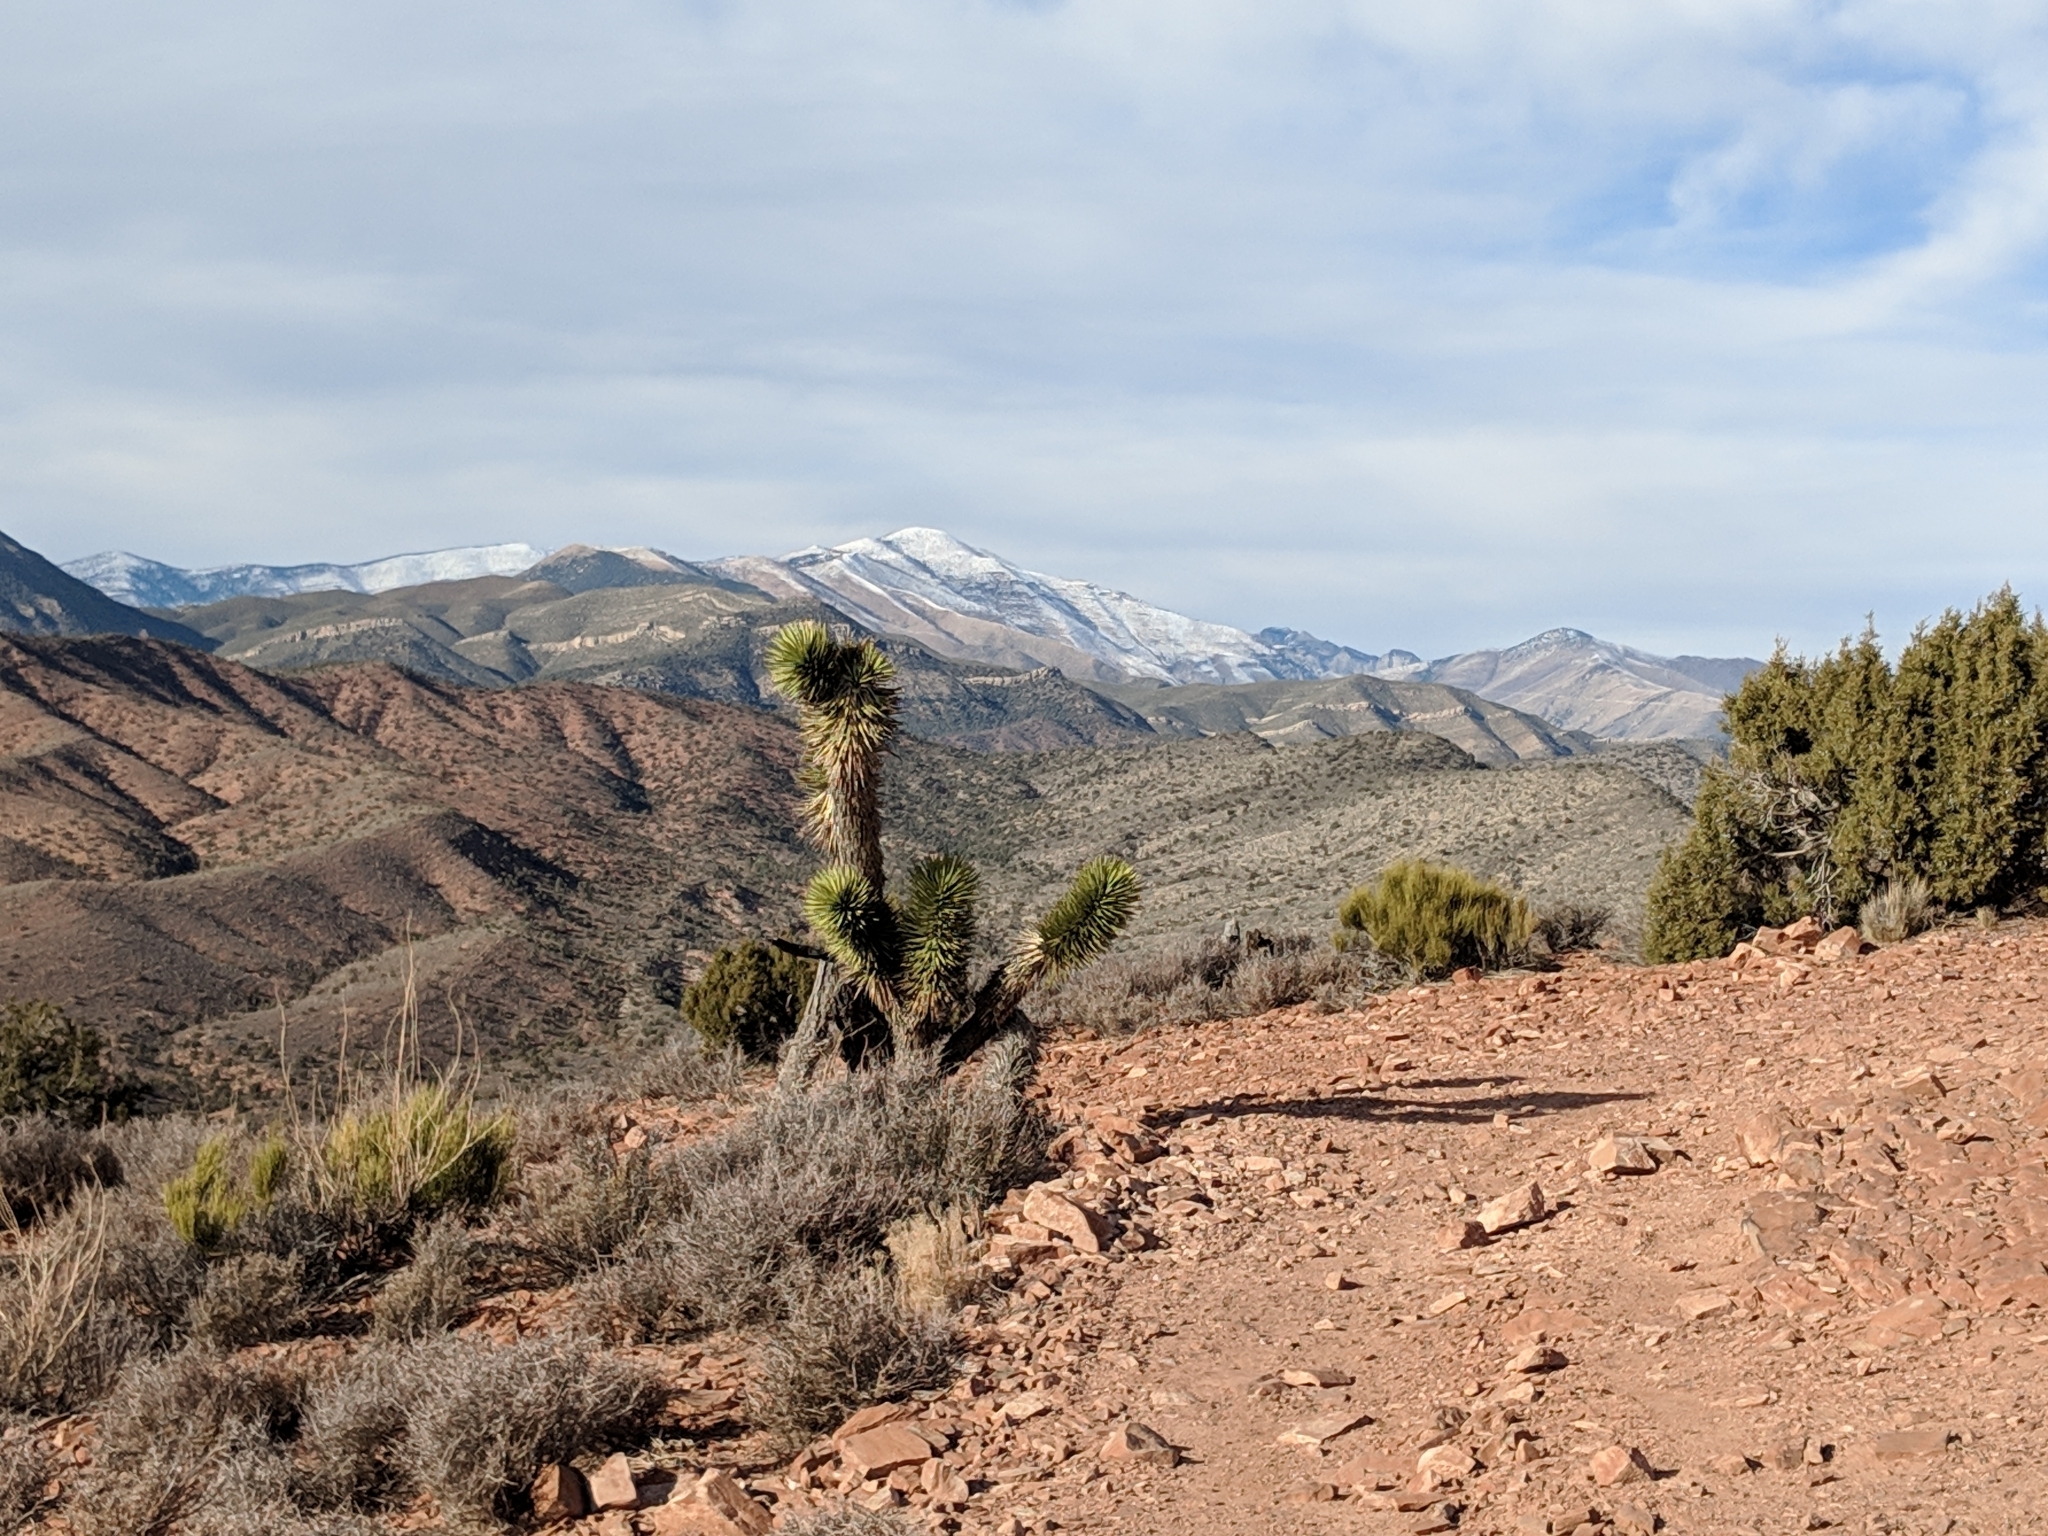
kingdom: Plantae
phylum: Tracheophyta
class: Liliopsida
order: Asparagales
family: Asparagaceae
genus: Yucca
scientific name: Yucca brevifolia
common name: Joshua tree
